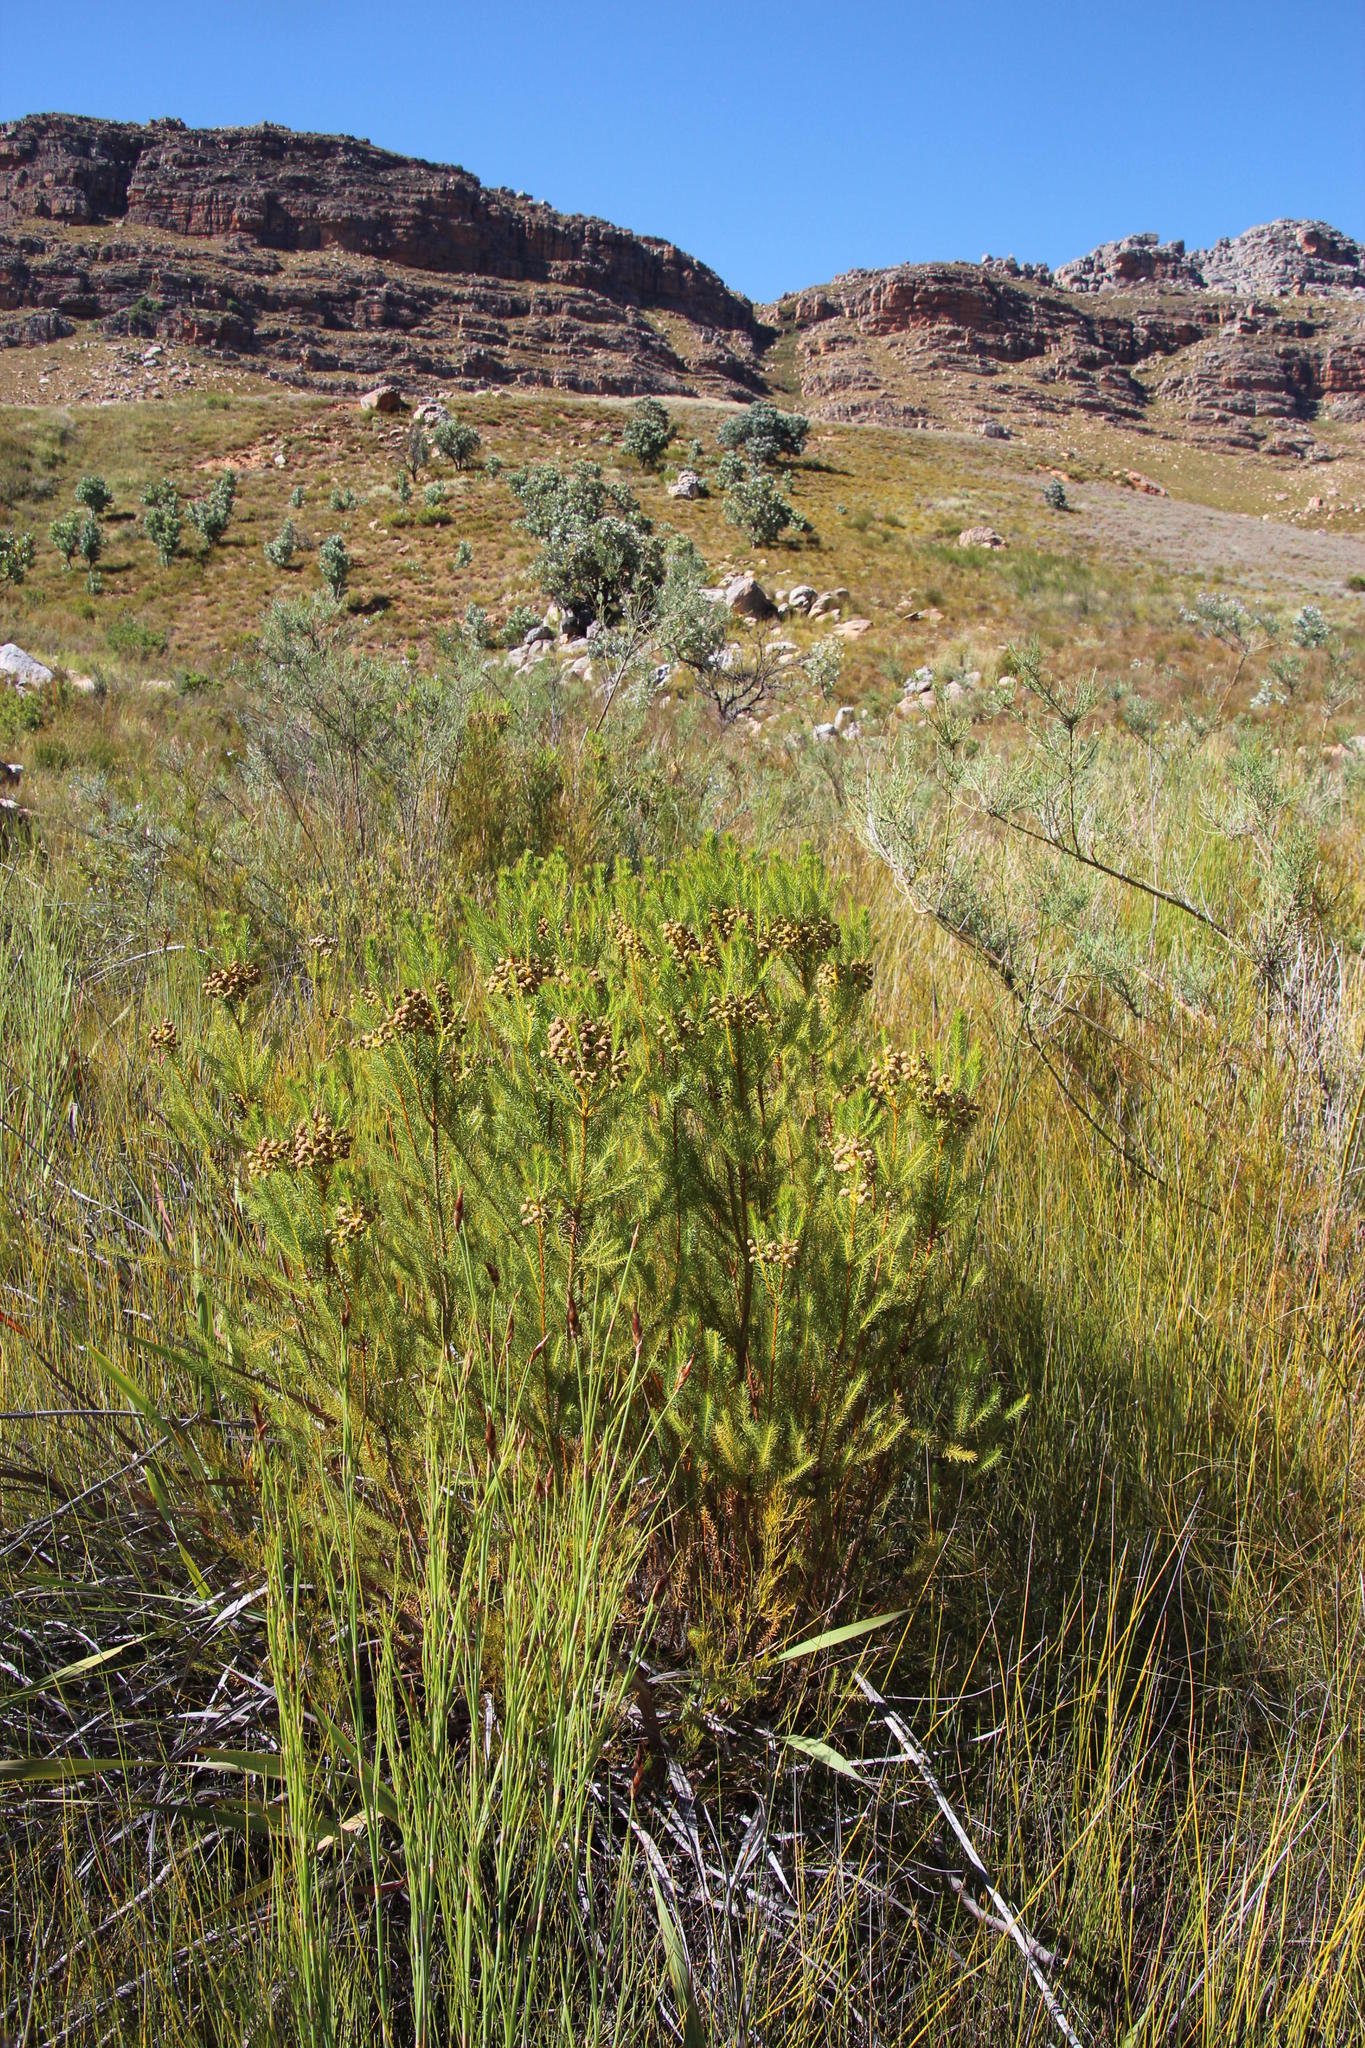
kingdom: Plantae
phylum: Tracheophyta
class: Magnoliopsida
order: Bruniales
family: Bruniaceae
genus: Berzelia
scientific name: Berzelia squarrosa
